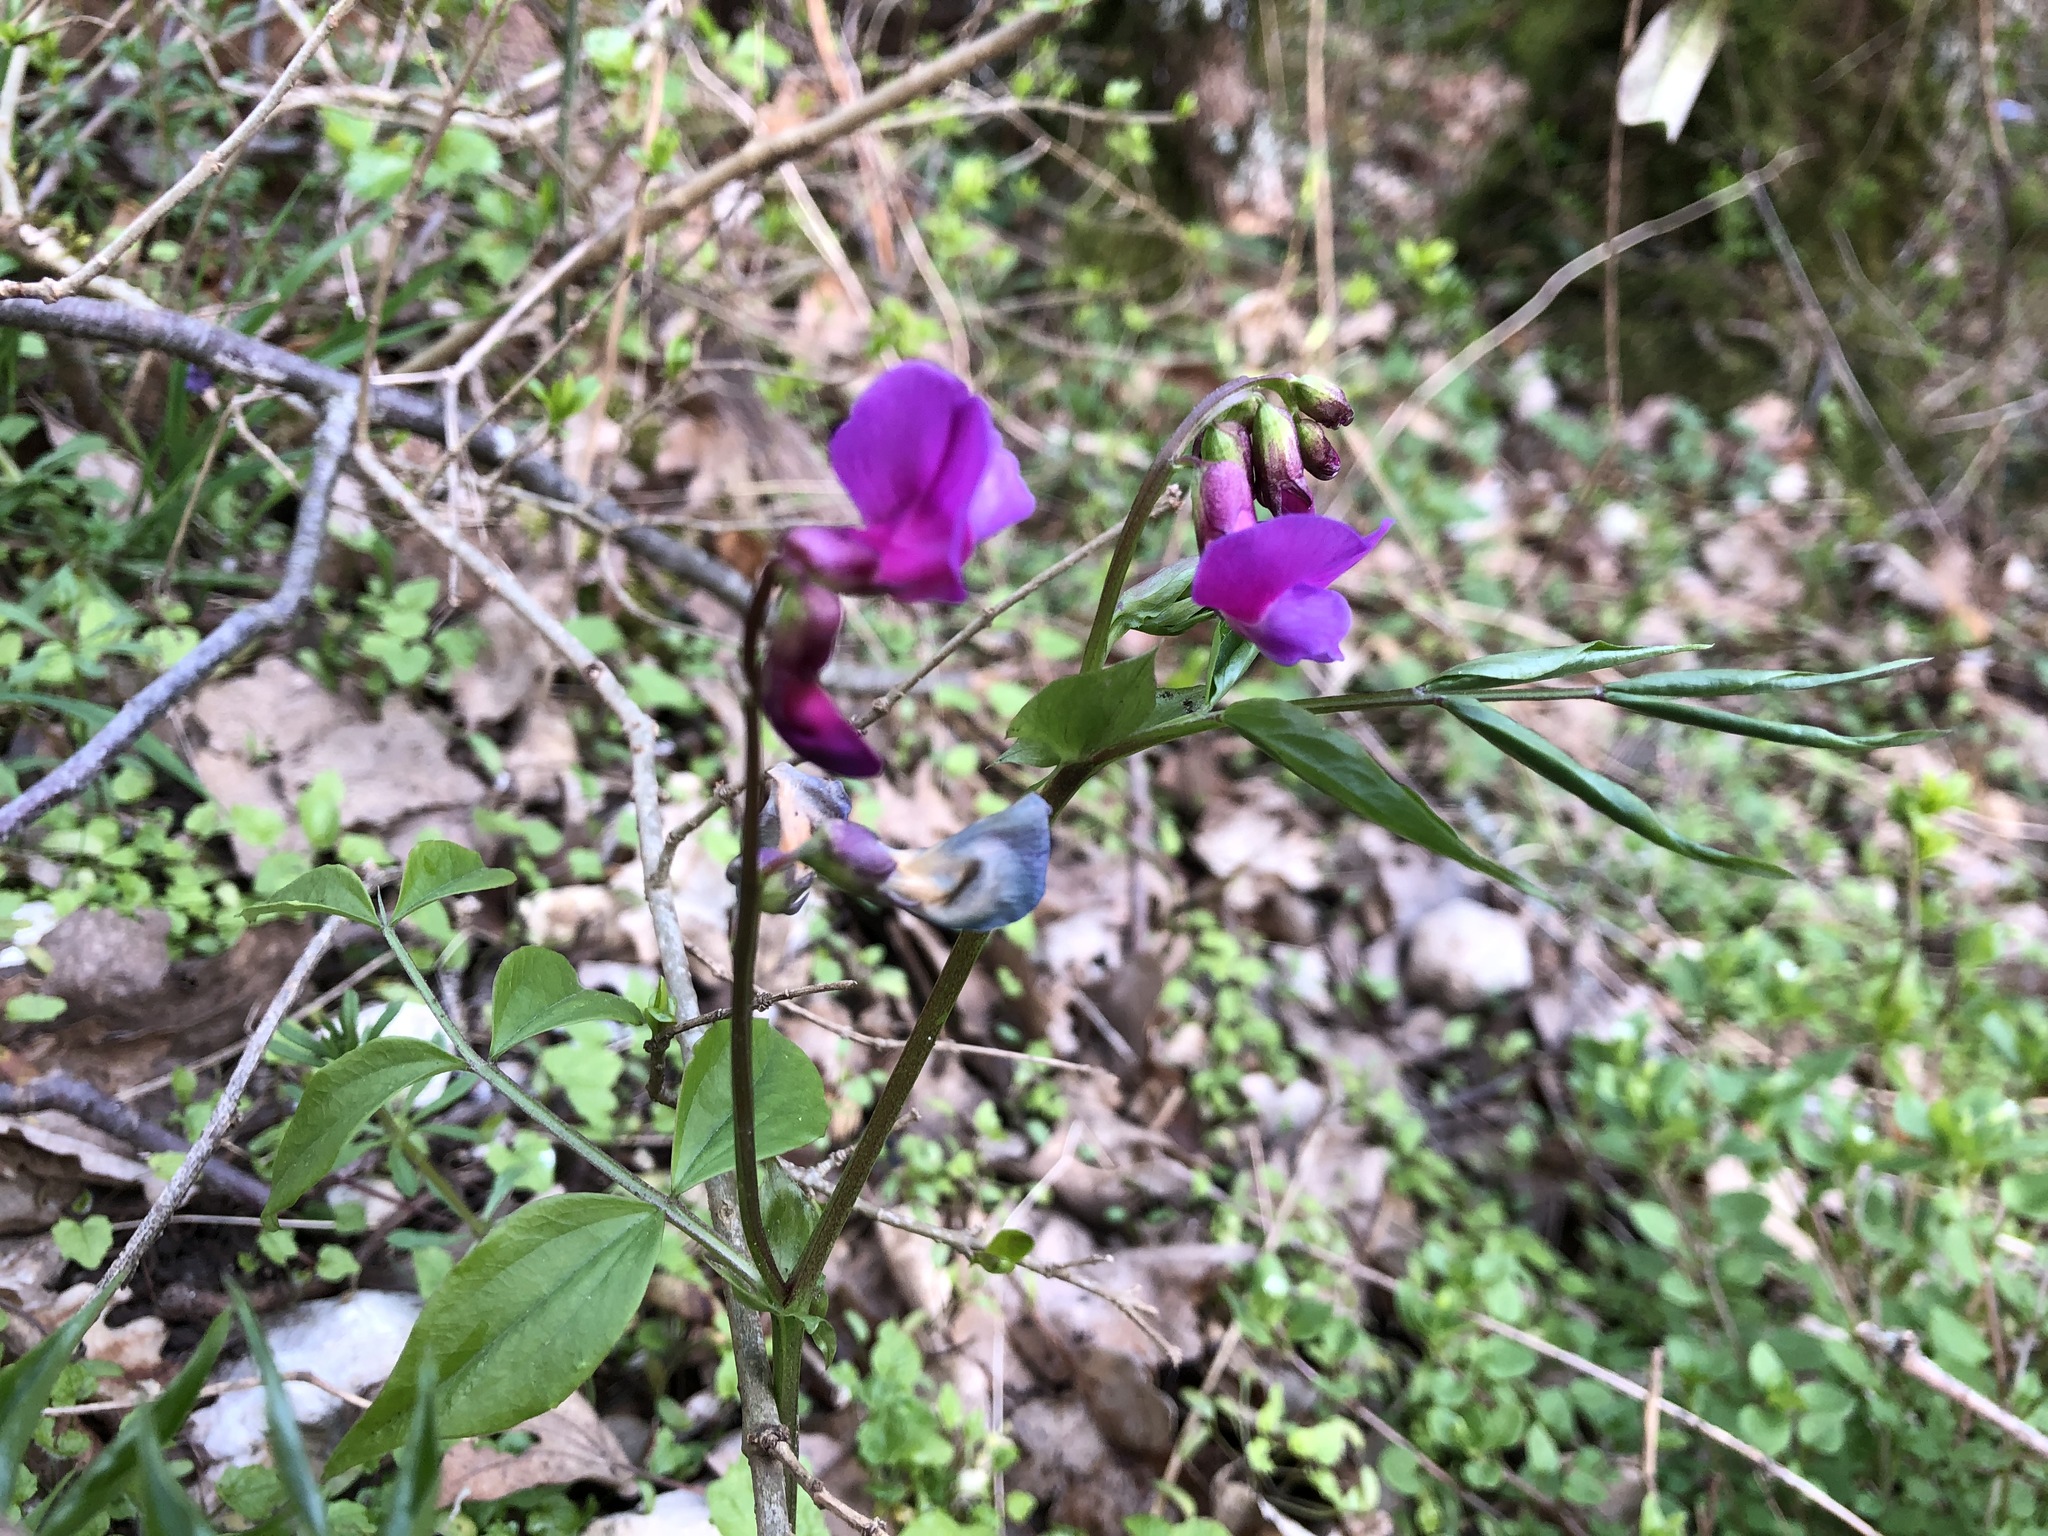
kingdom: Plantae
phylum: Tracheophyta
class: Magnoliopsida
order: Fabales
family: Fabaceae
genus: Lathyrus
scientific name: Lathyrus vernus
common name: Spring pea
